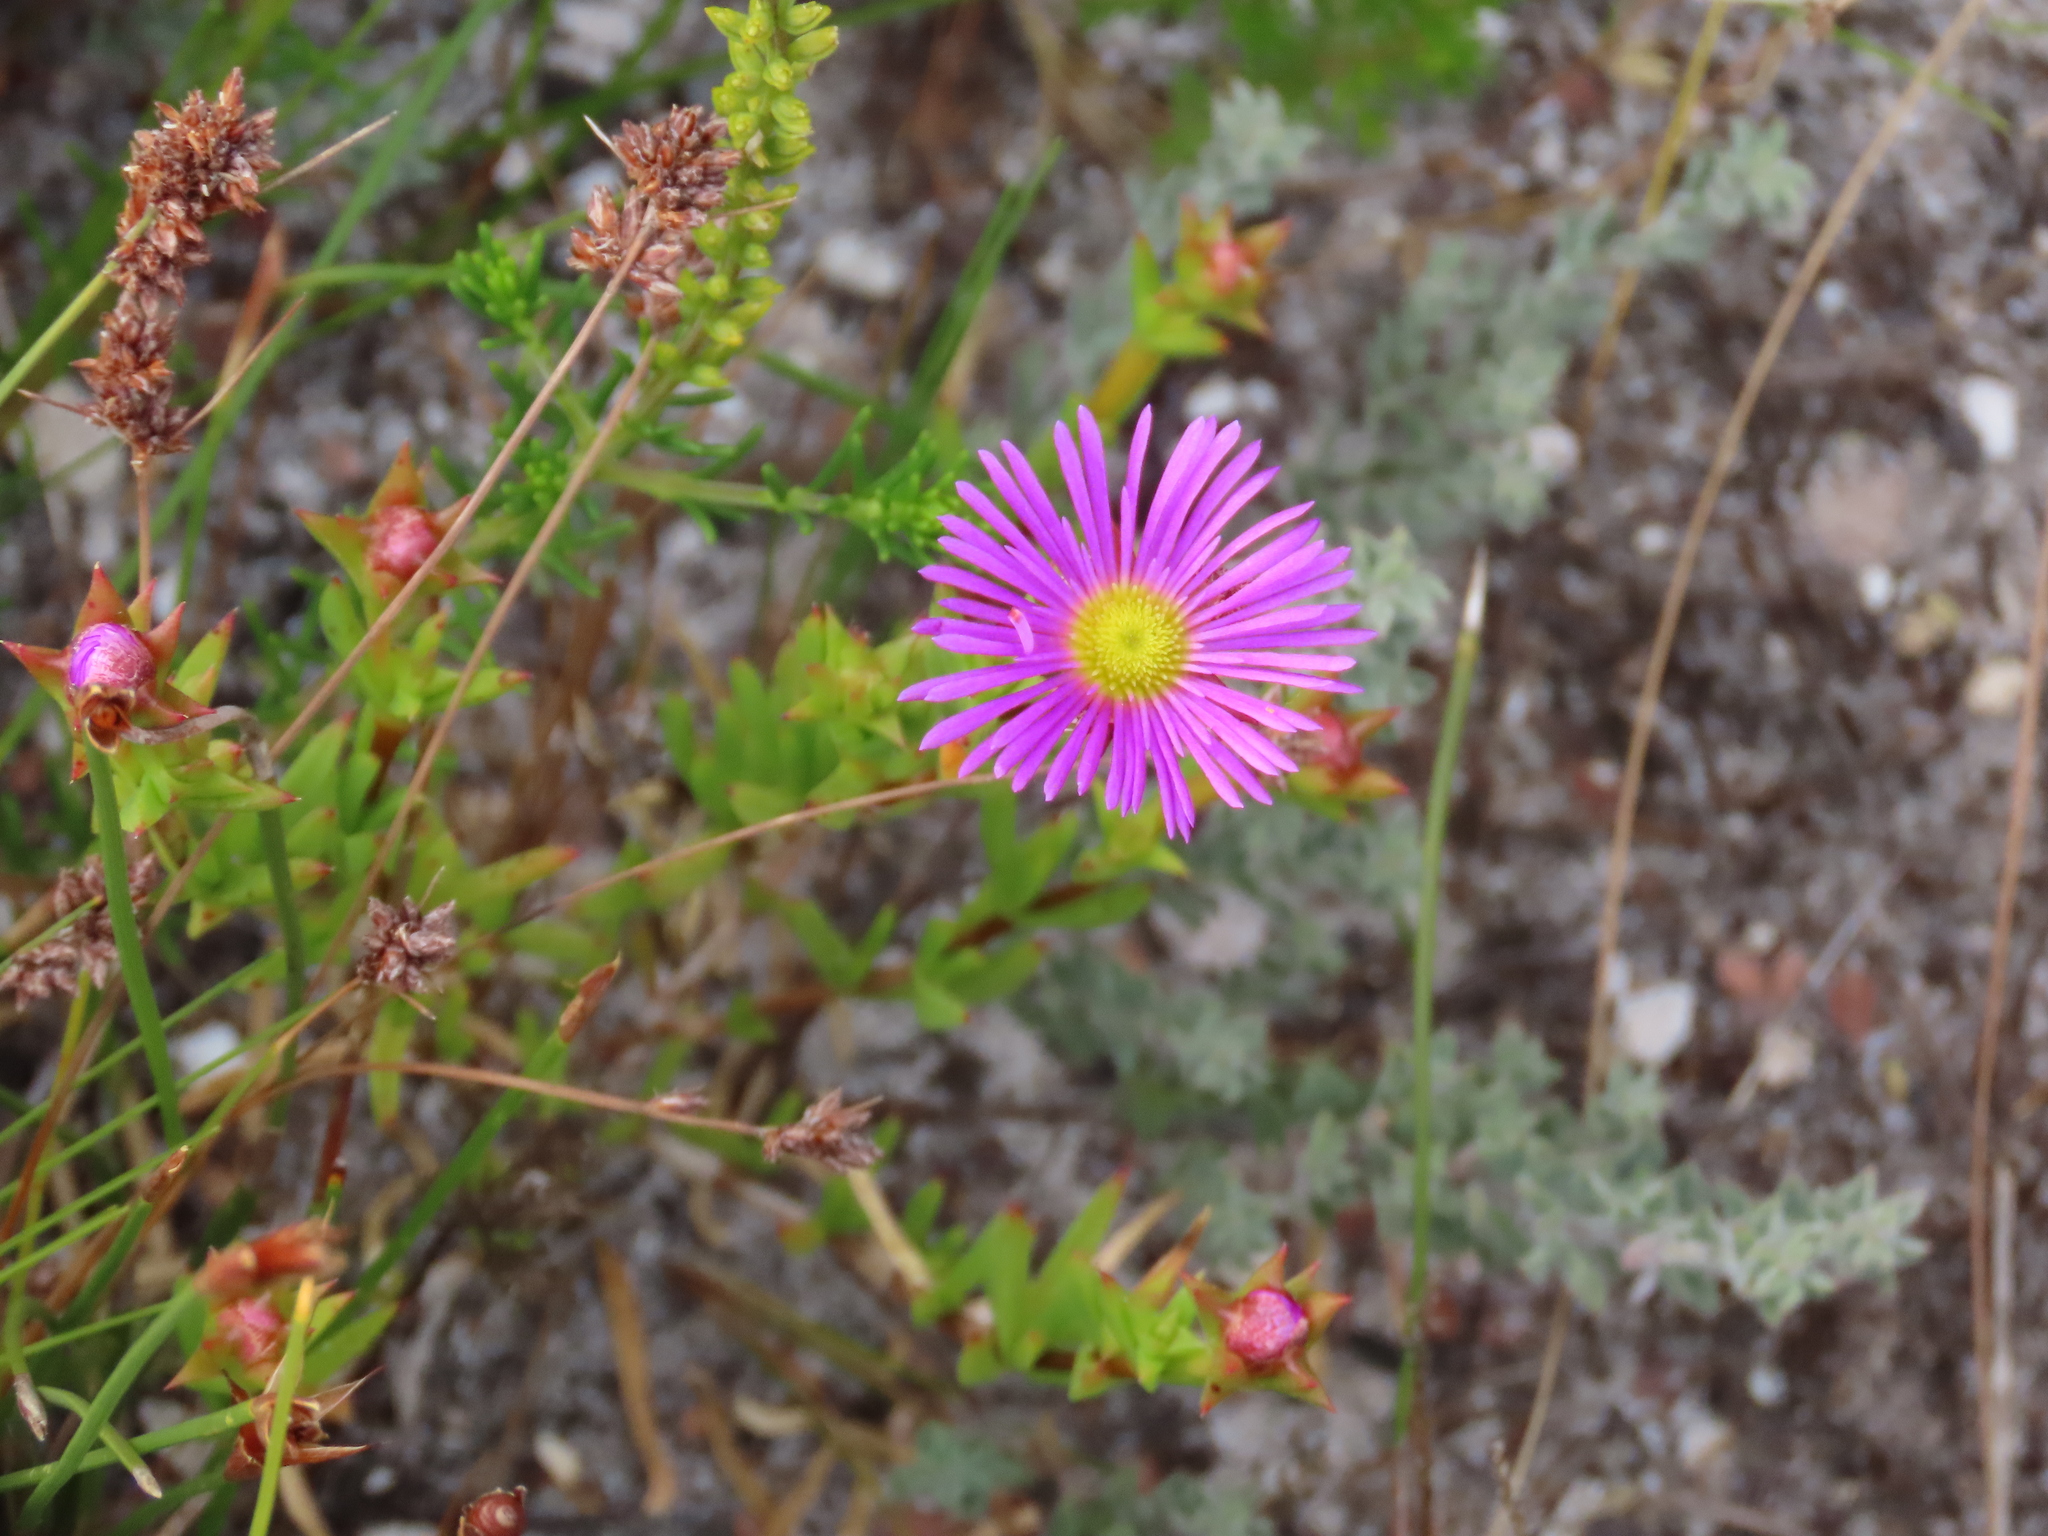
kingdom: Plantae
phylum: Tracheophyta
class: Magnoliopsida
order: Caryophyllales
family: Aizoaceae
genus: Erepsia
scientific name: Erepsia anceps
